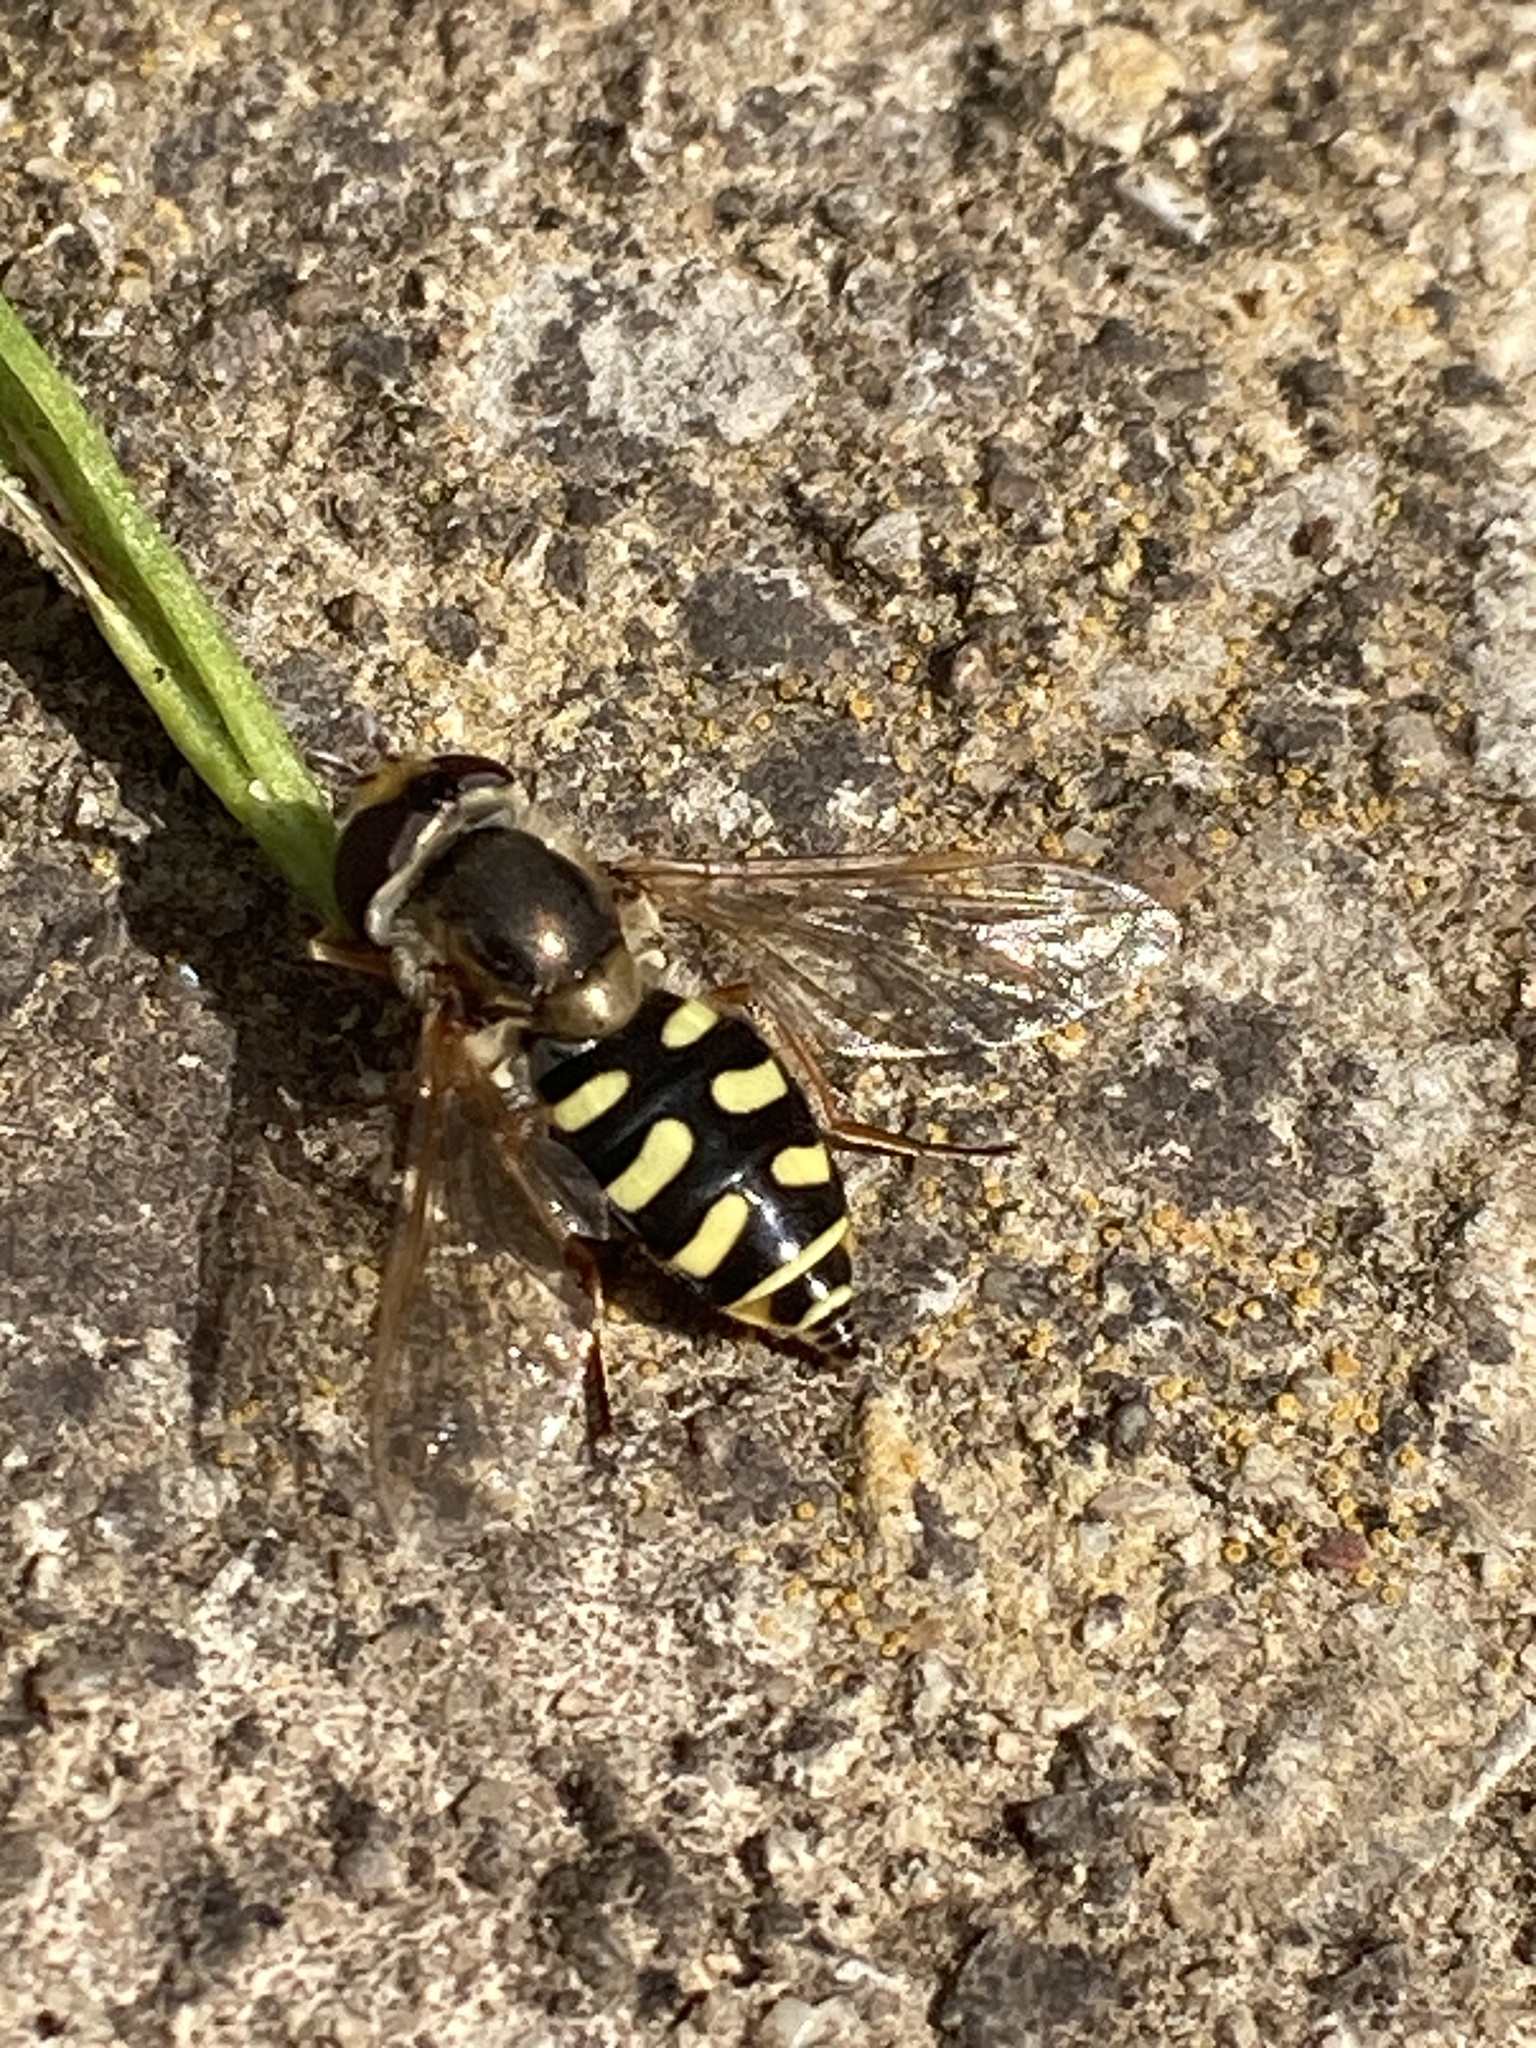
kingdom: Animalia
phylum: Arthropoda
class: Insecta
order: Diptera
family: Syrphidae
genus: Eupeodes
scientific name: Eupeodes corollae
